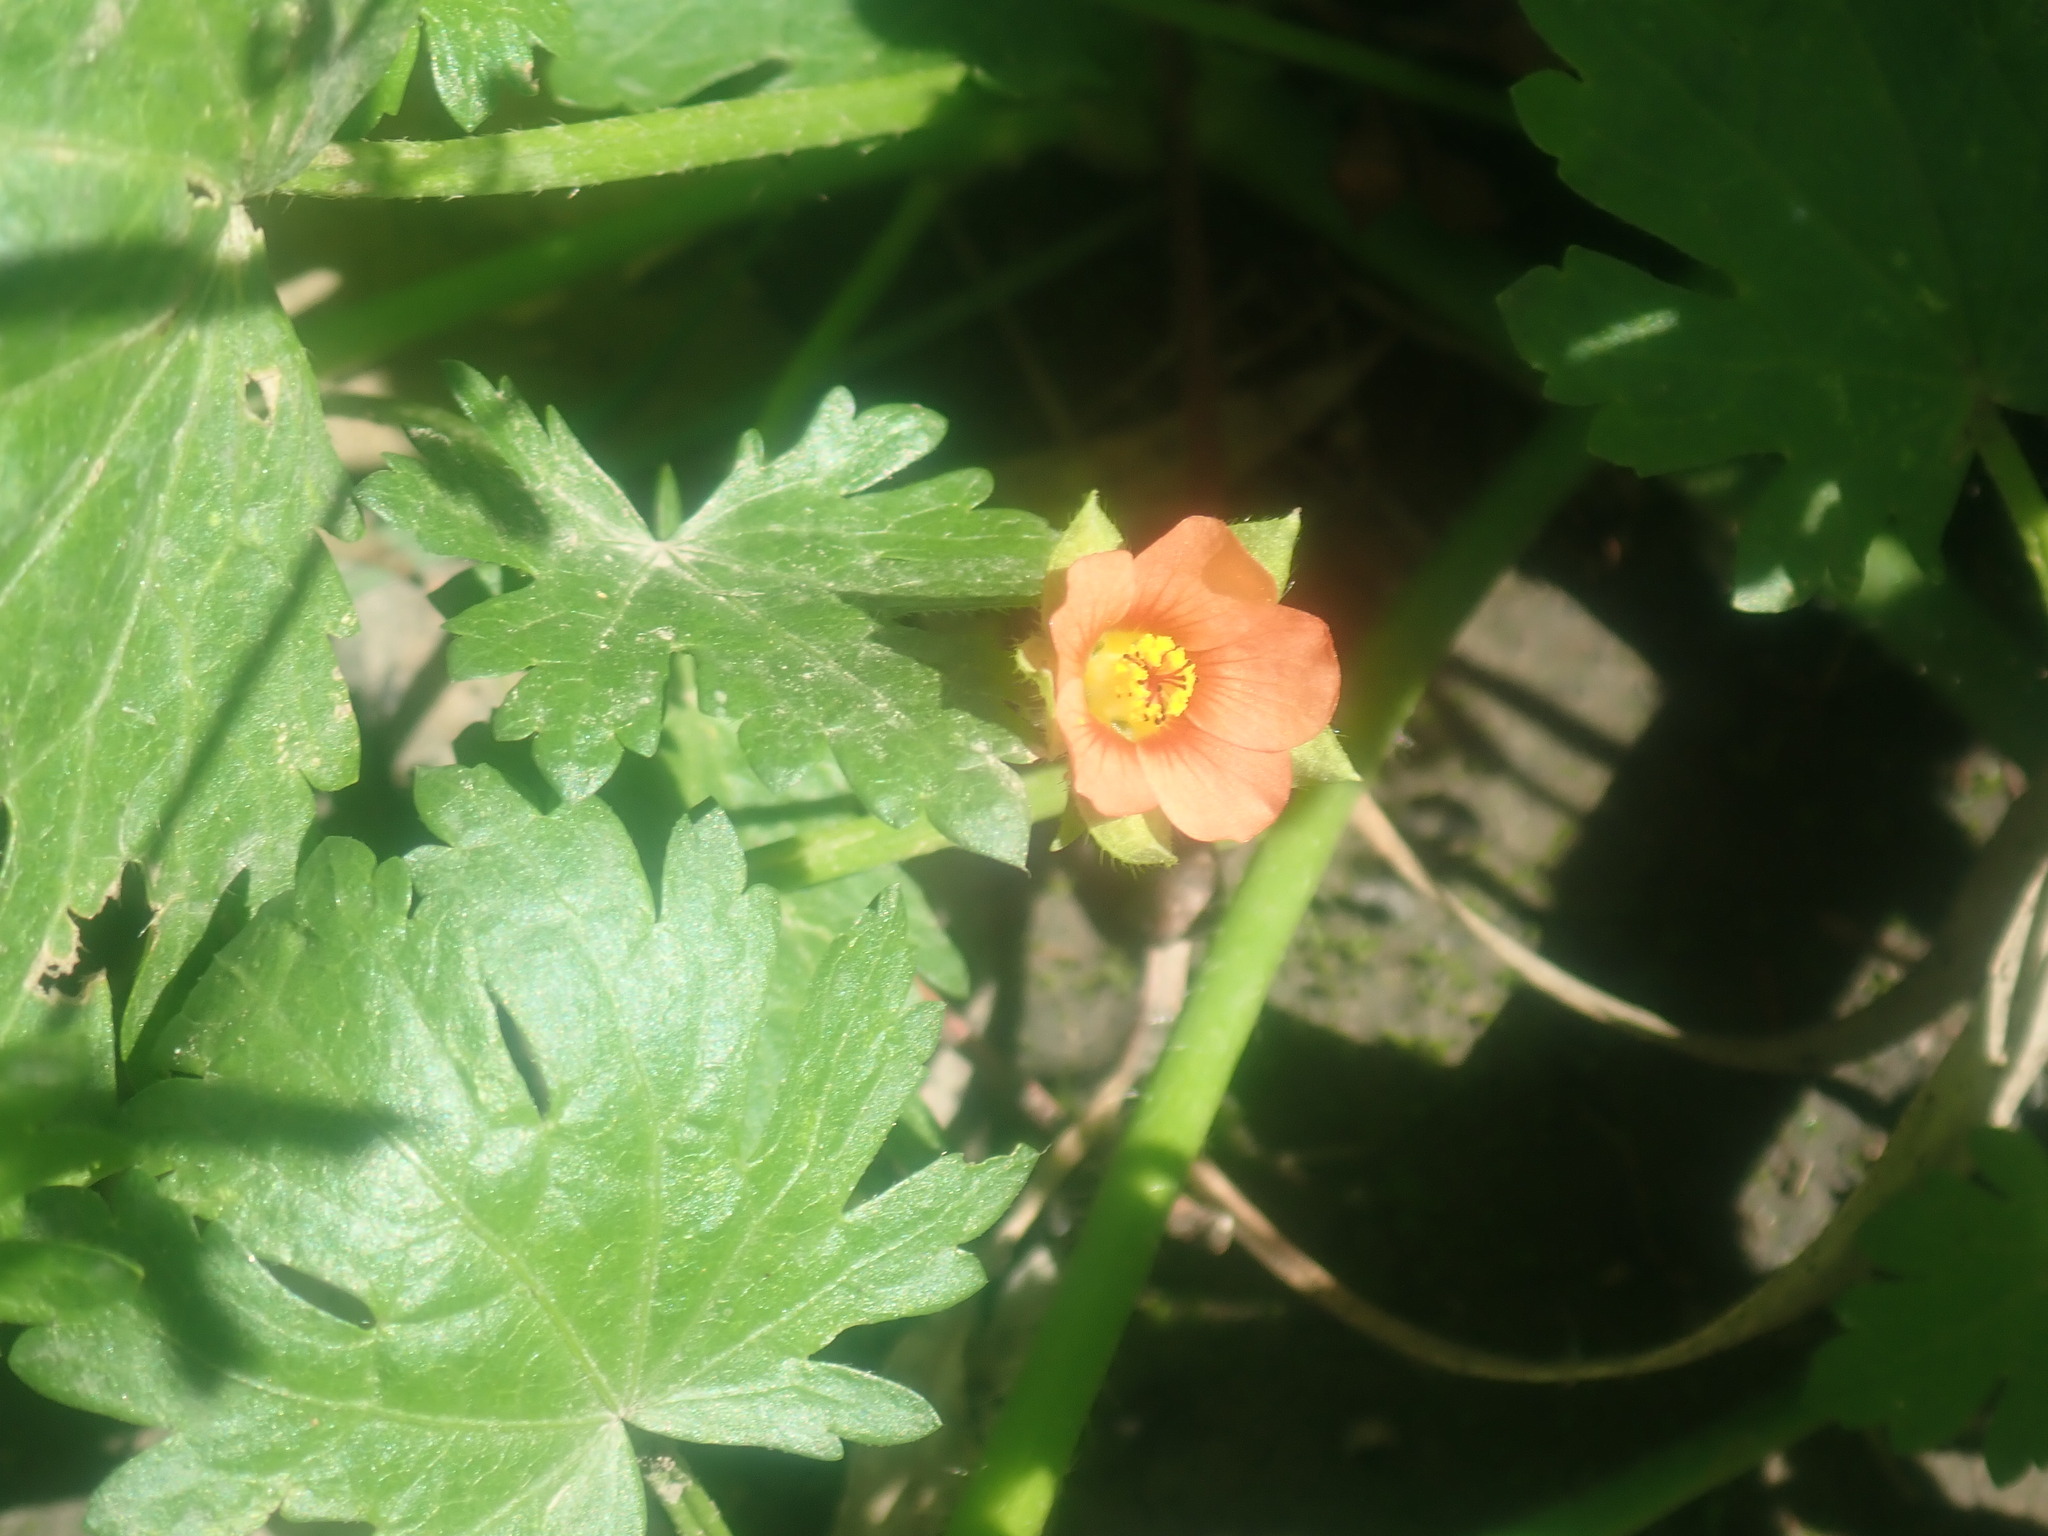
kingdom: Plantae
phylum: Tracheophyta
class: Magnoliopsida
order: Ericales
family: Primulaceae
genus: Lysimachia
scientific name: Lysimachia arvensis
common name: Scarlet pimpernel
